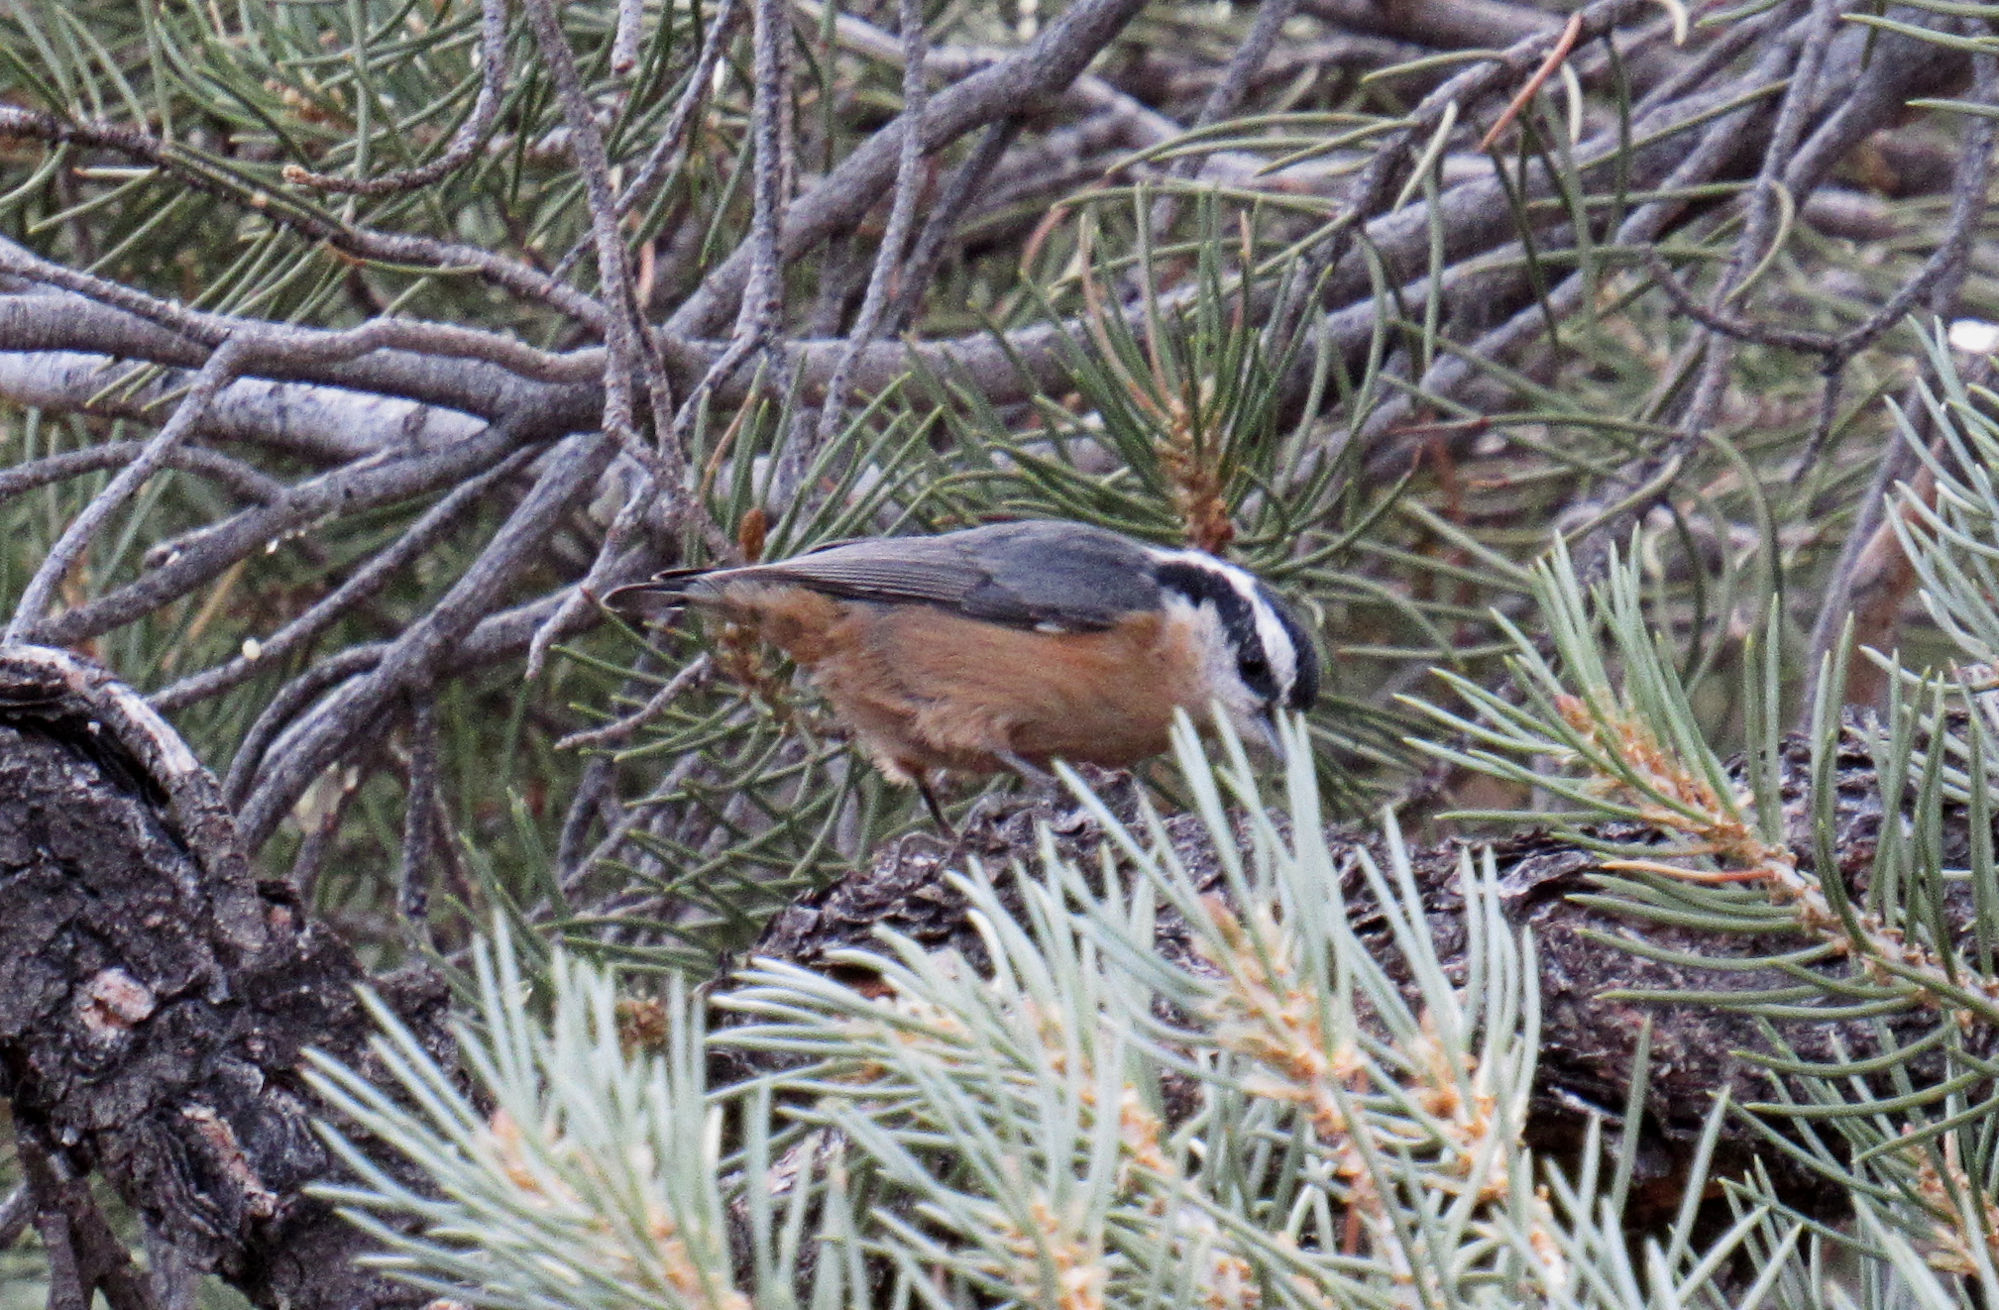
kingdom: Animalia
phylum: Chordata
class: Aves
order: Passeriformes
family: Sittidae
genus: Sitta
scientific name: Sitta canadensis
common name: Red-breasted nuthatch
